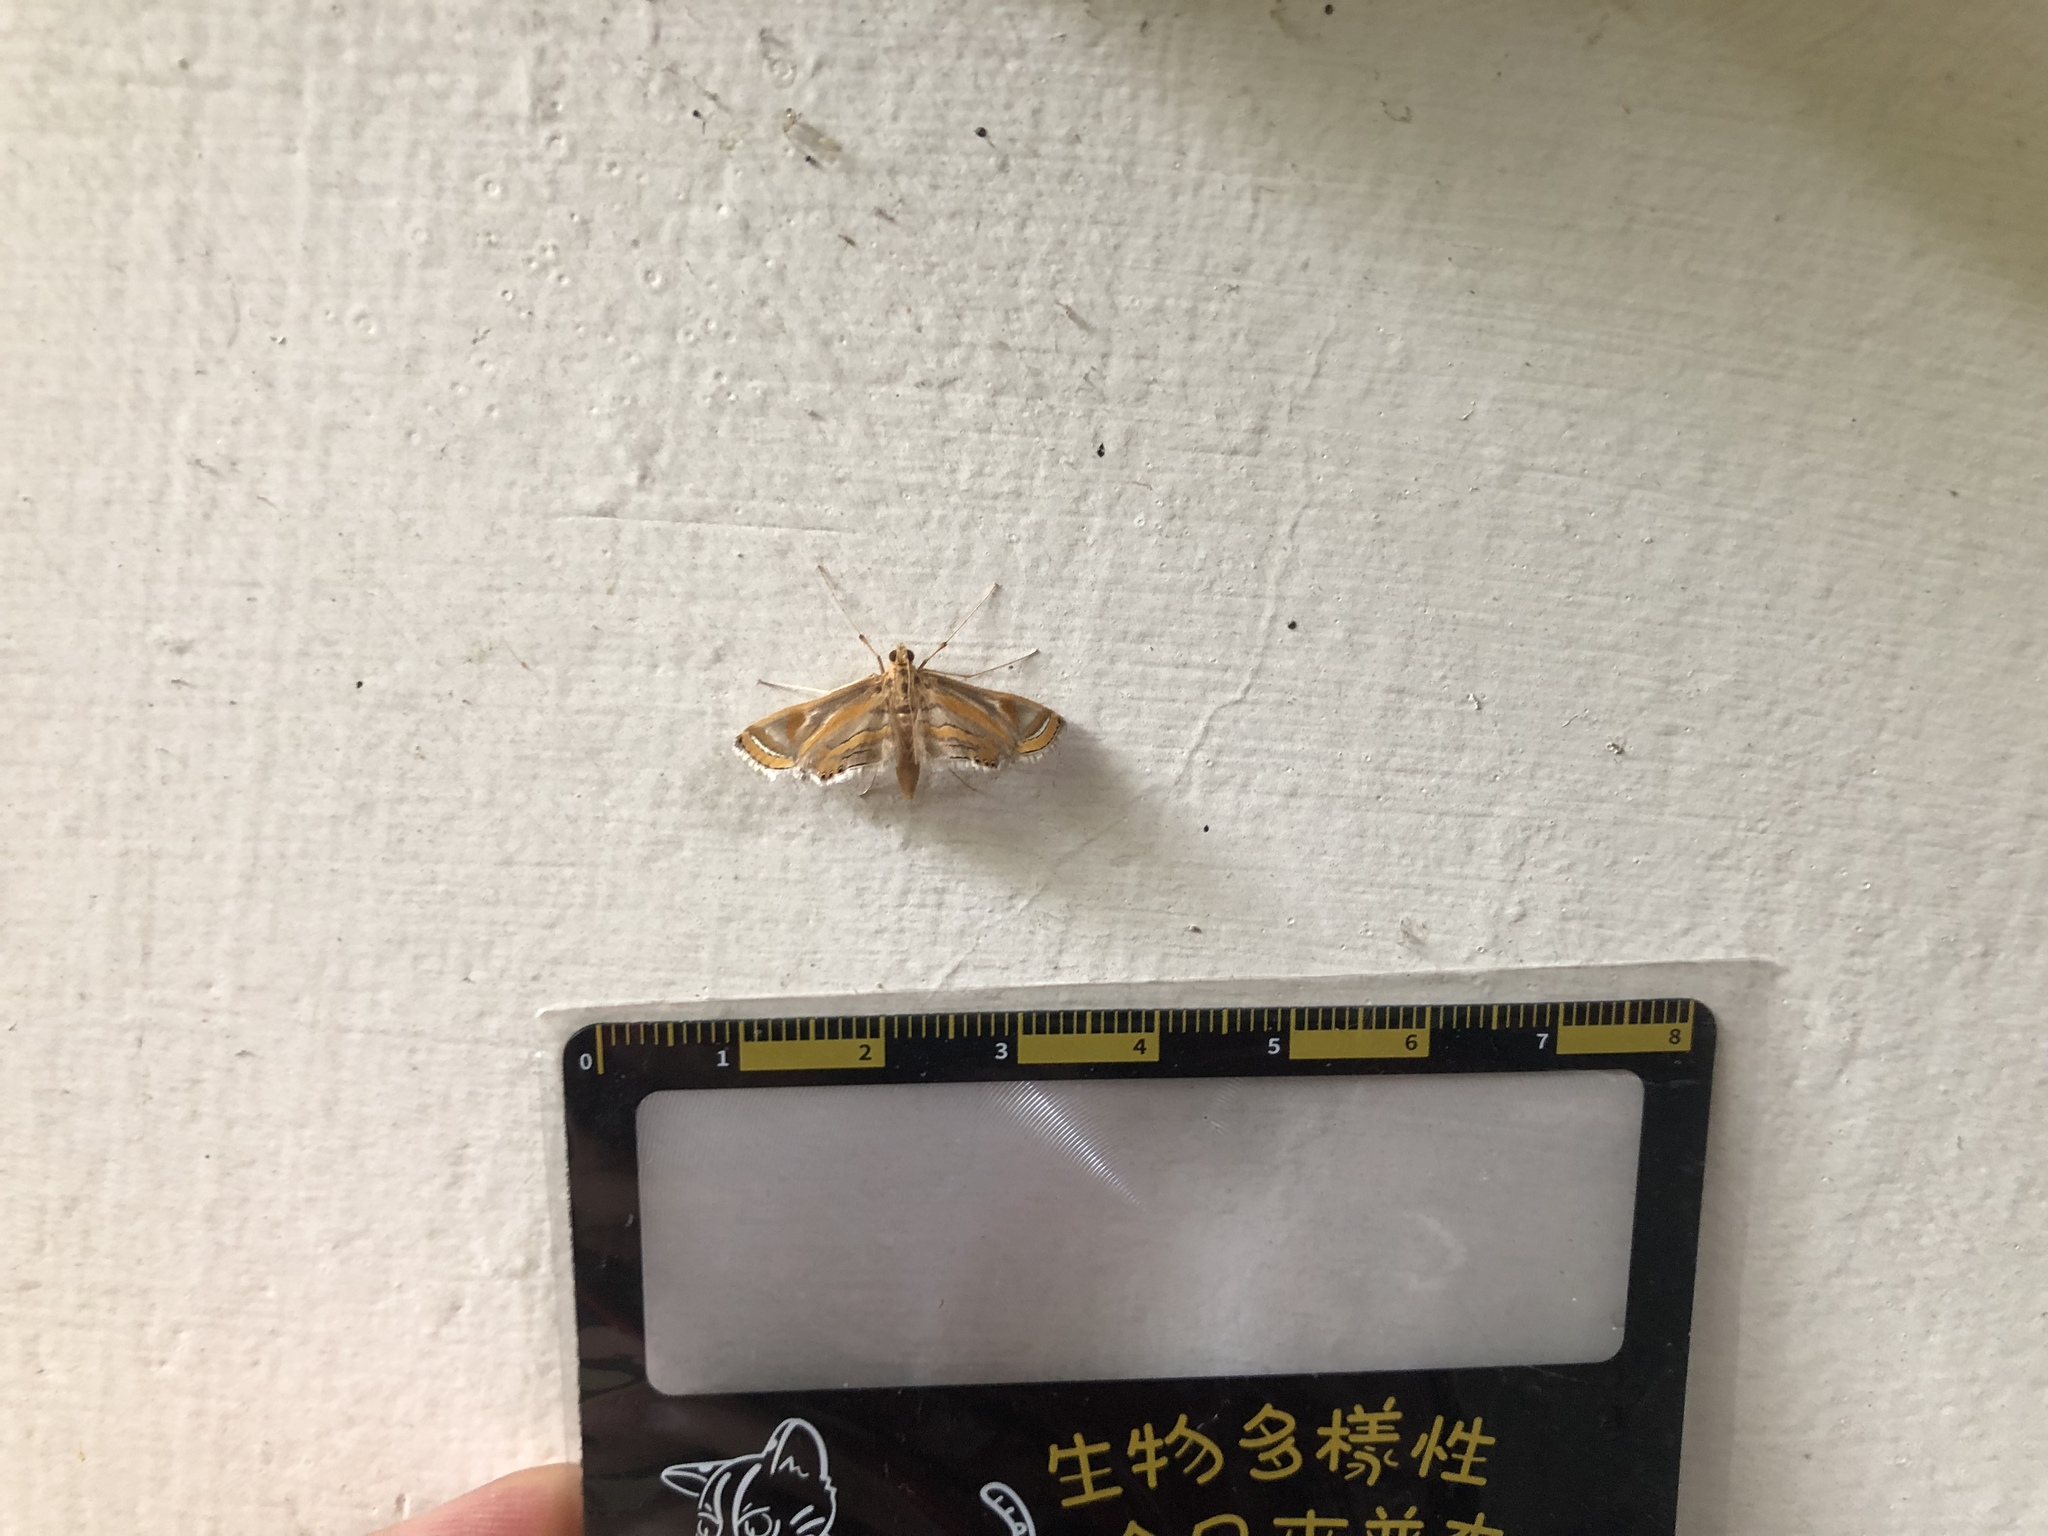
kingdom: Animalia
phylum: Arthropoda
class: Insecta
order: Lepidoptera
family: Crambidae
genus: Eoophyla
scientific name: Eoophyla conjunctalis
